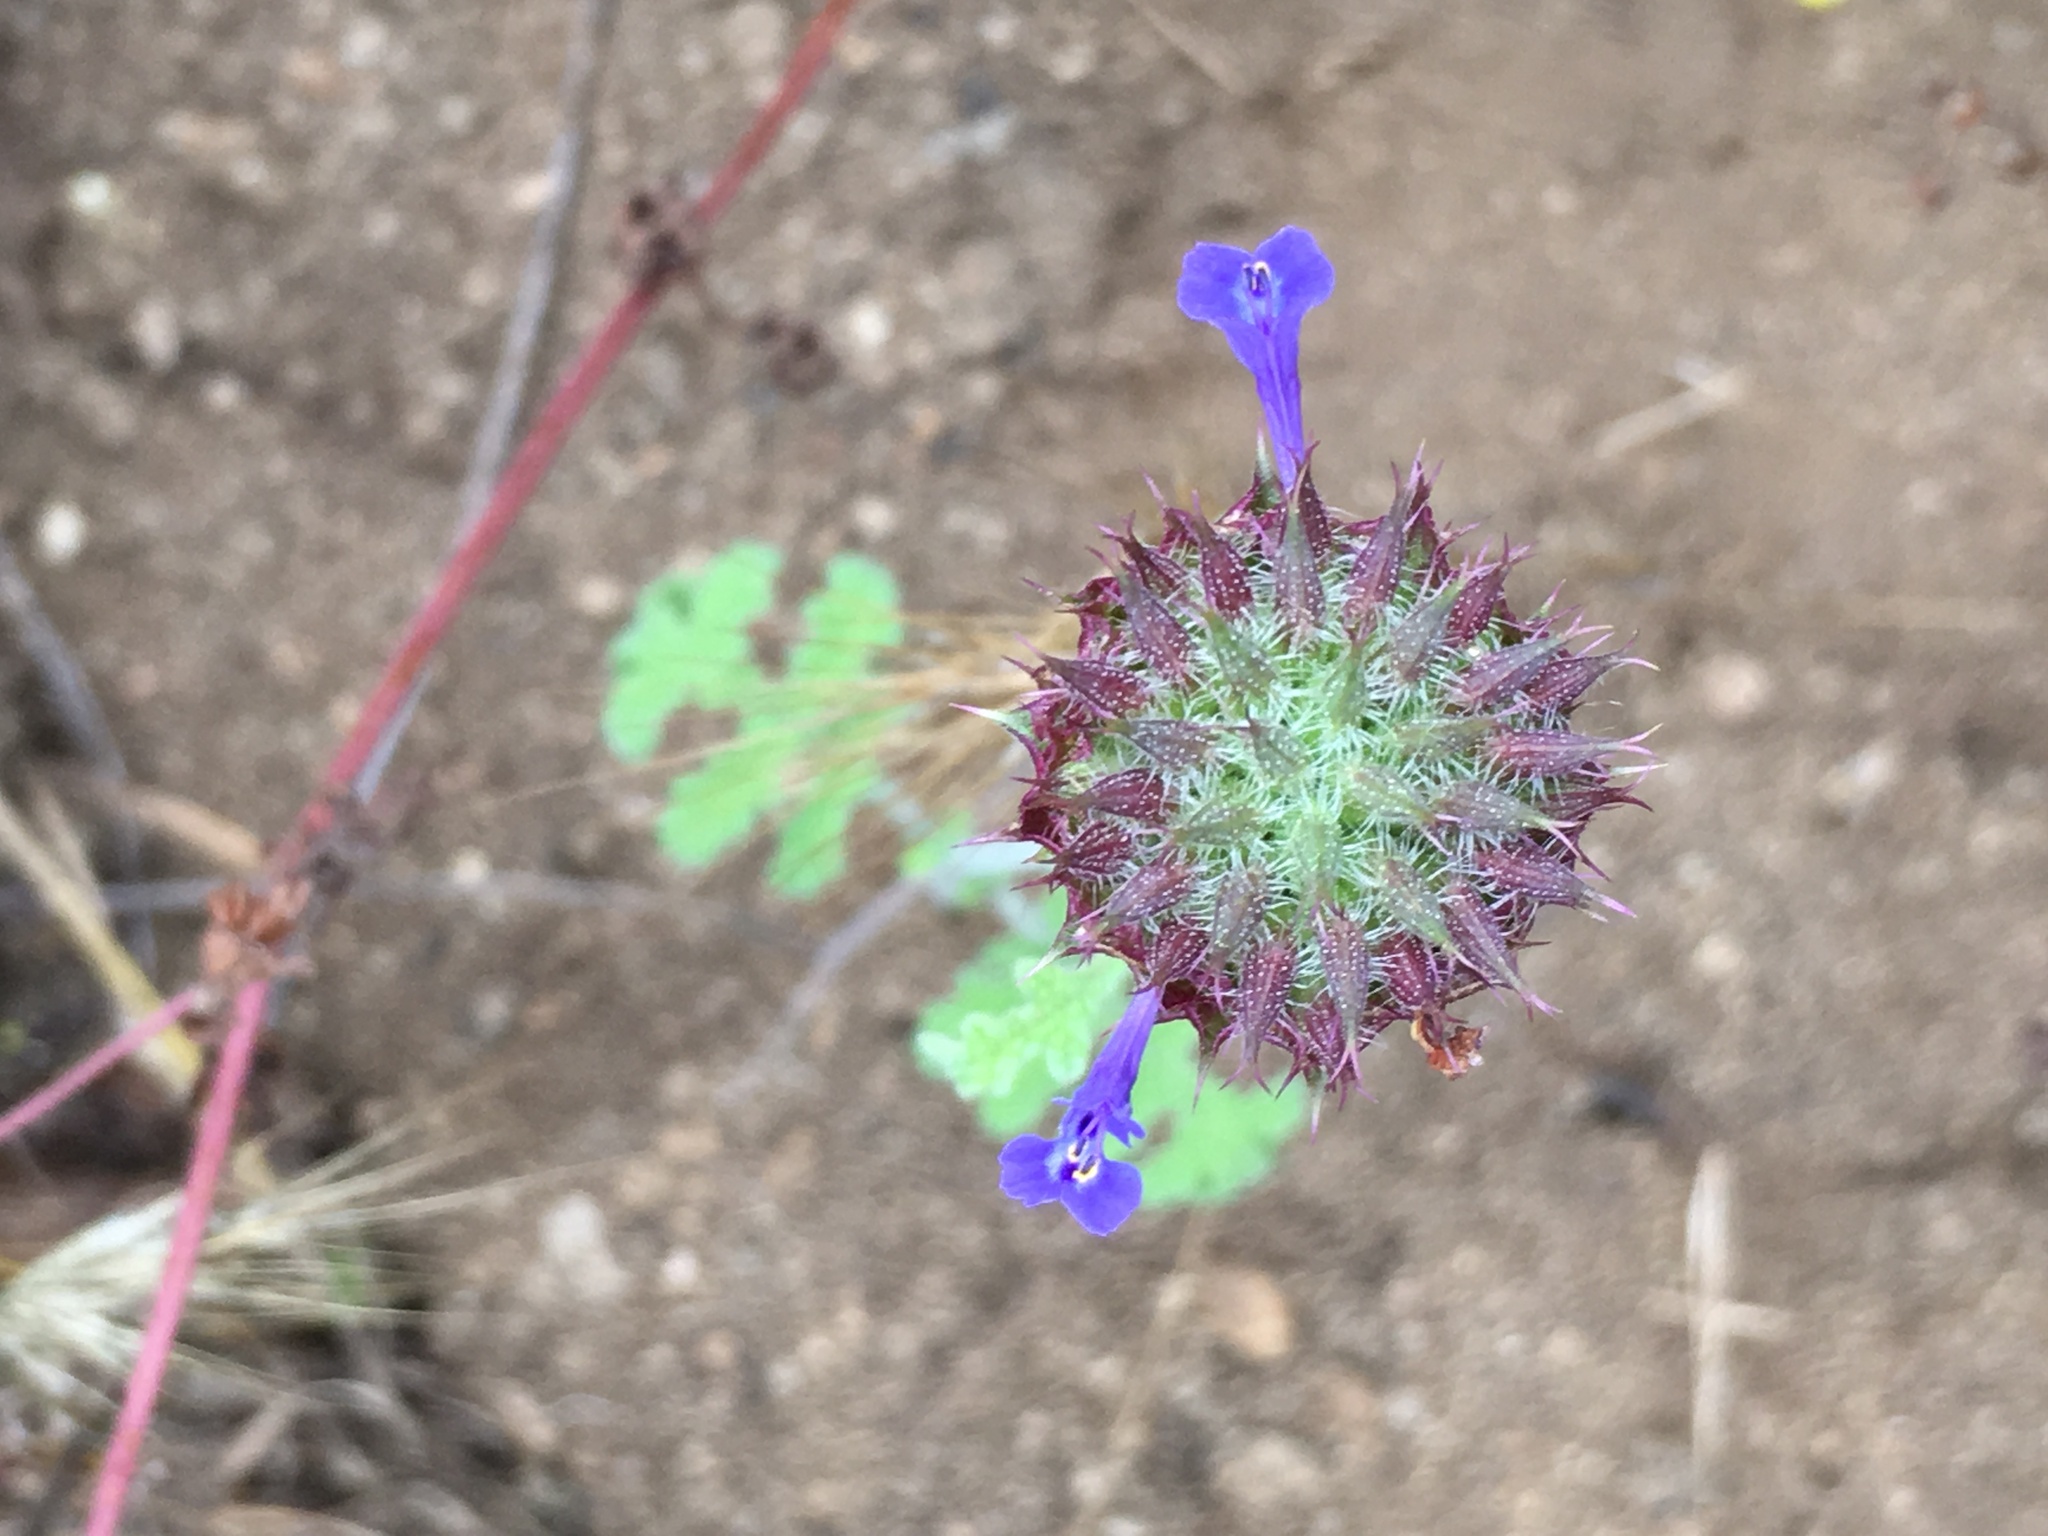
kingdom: Plantae
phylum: Tracheophyta
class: Magnoliopsida
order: Lamiales
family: Lamiaceae
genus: Salvia
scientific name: Salvia columbariae
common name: Chia
